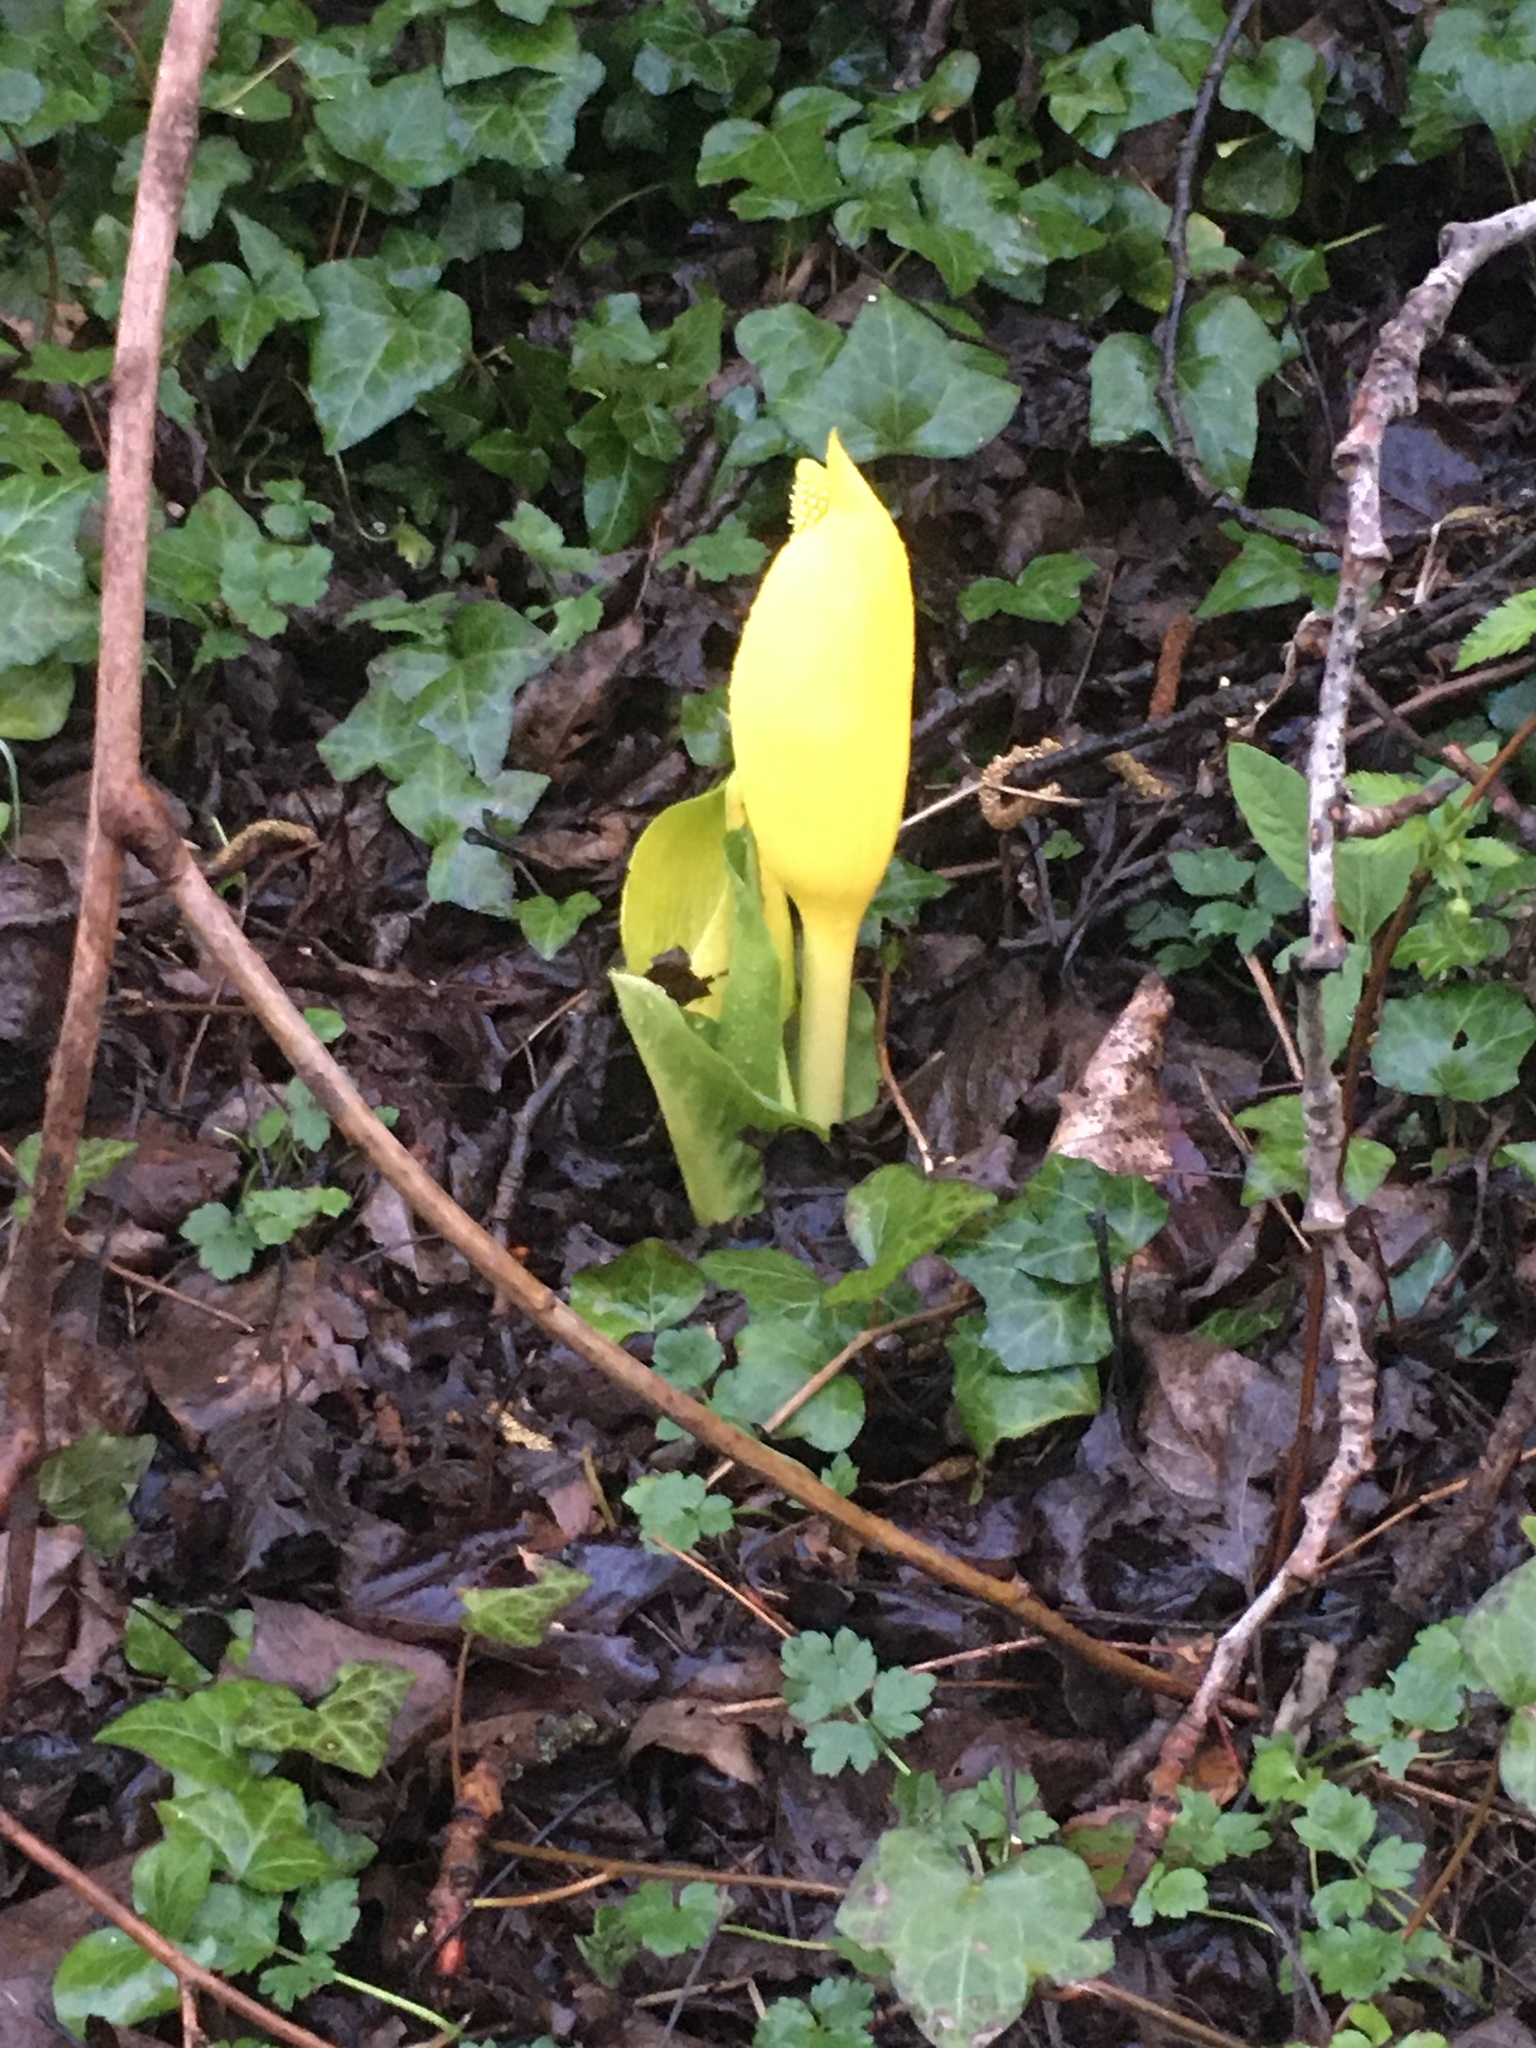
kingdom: Plantae
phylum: Tracheophyta
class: Liliopsida
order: Alismatales
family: Araceae
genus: Lysichiton
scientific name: Lysichiton americanus
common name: American skunk cabbage
